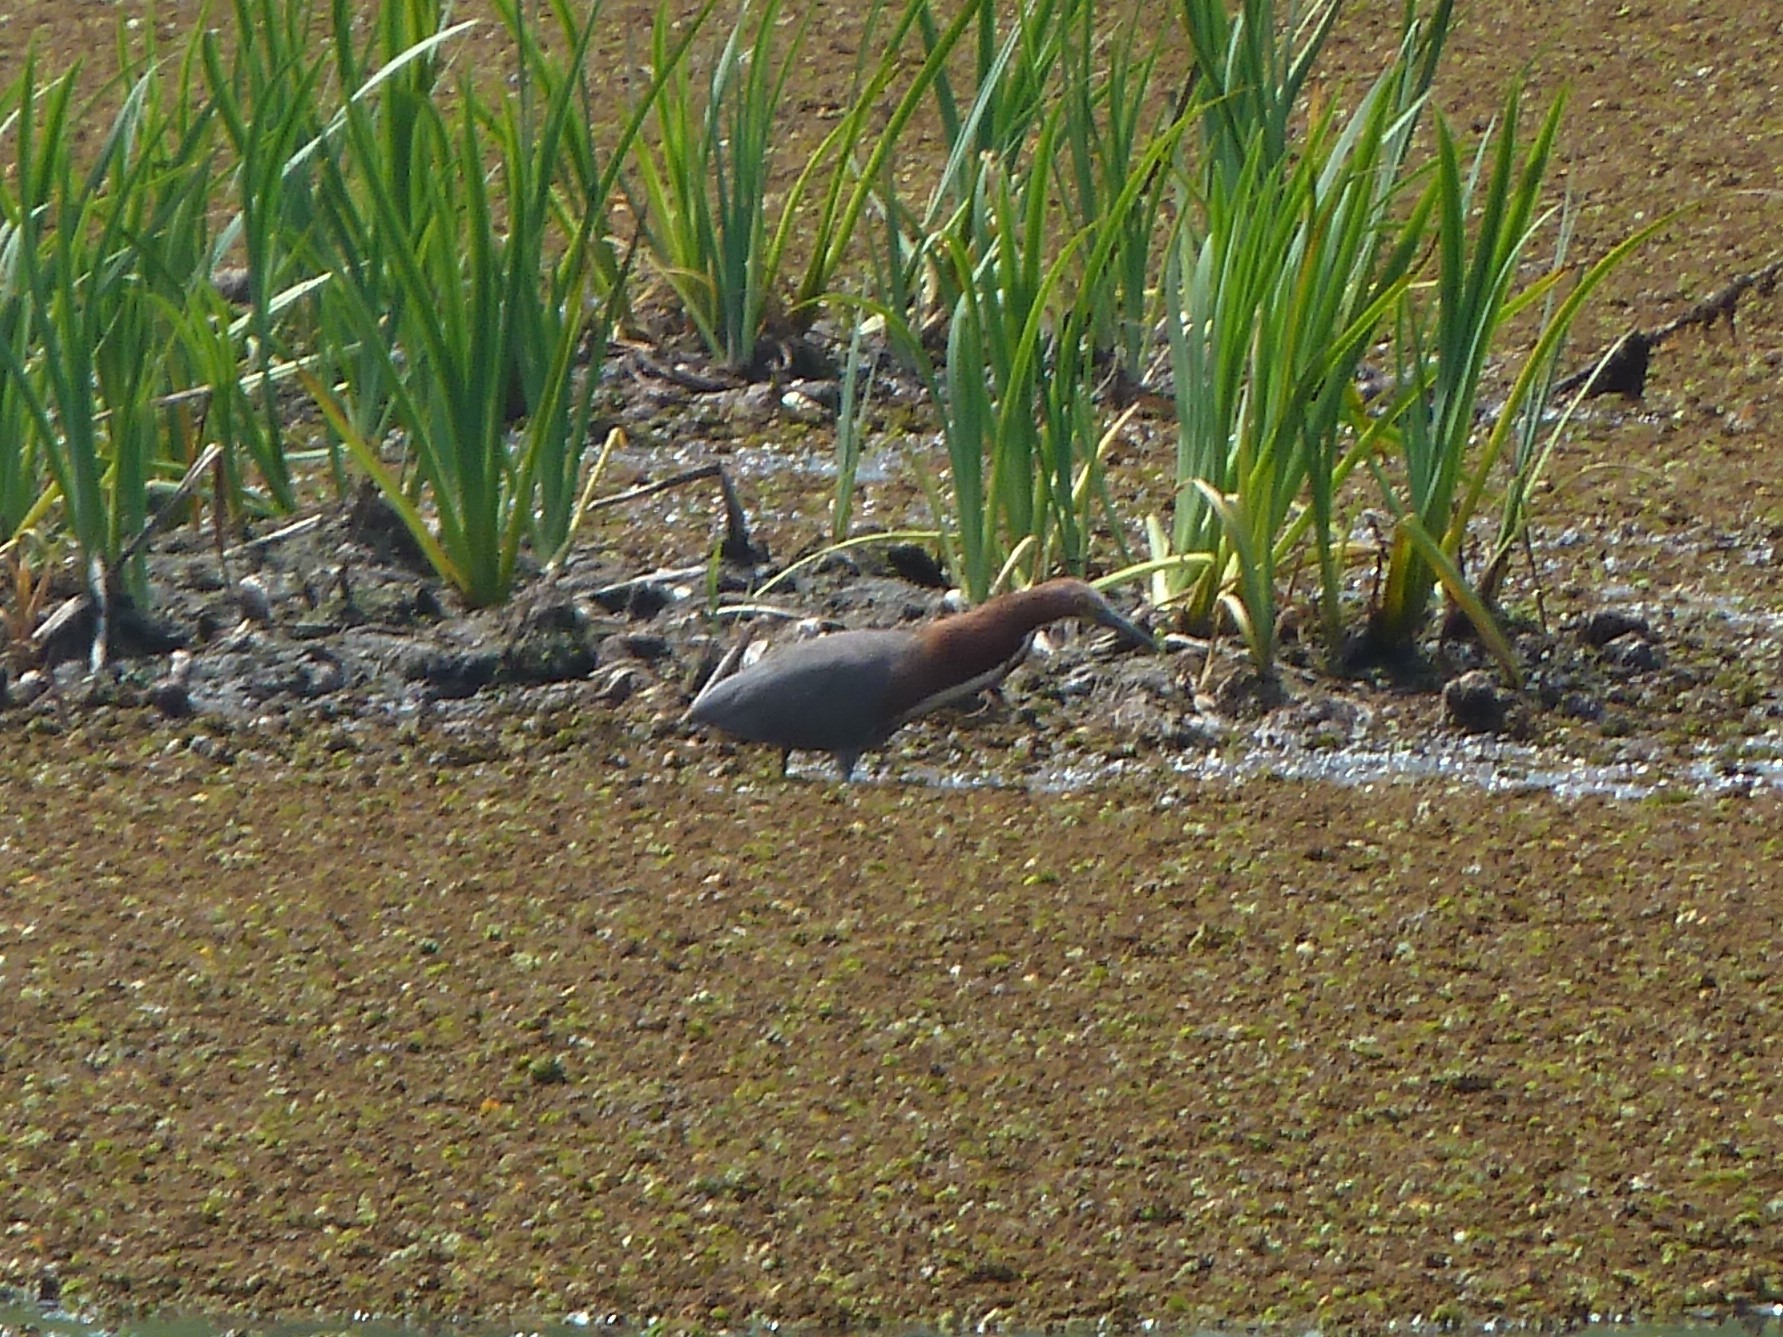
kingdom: Animalia
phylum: Chordata
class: Aves
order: Pelecaniformes
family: Ardeidae
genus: Tigrisoma
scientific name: Tigrisoma lineatum
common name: Rufescent tiger-heron
